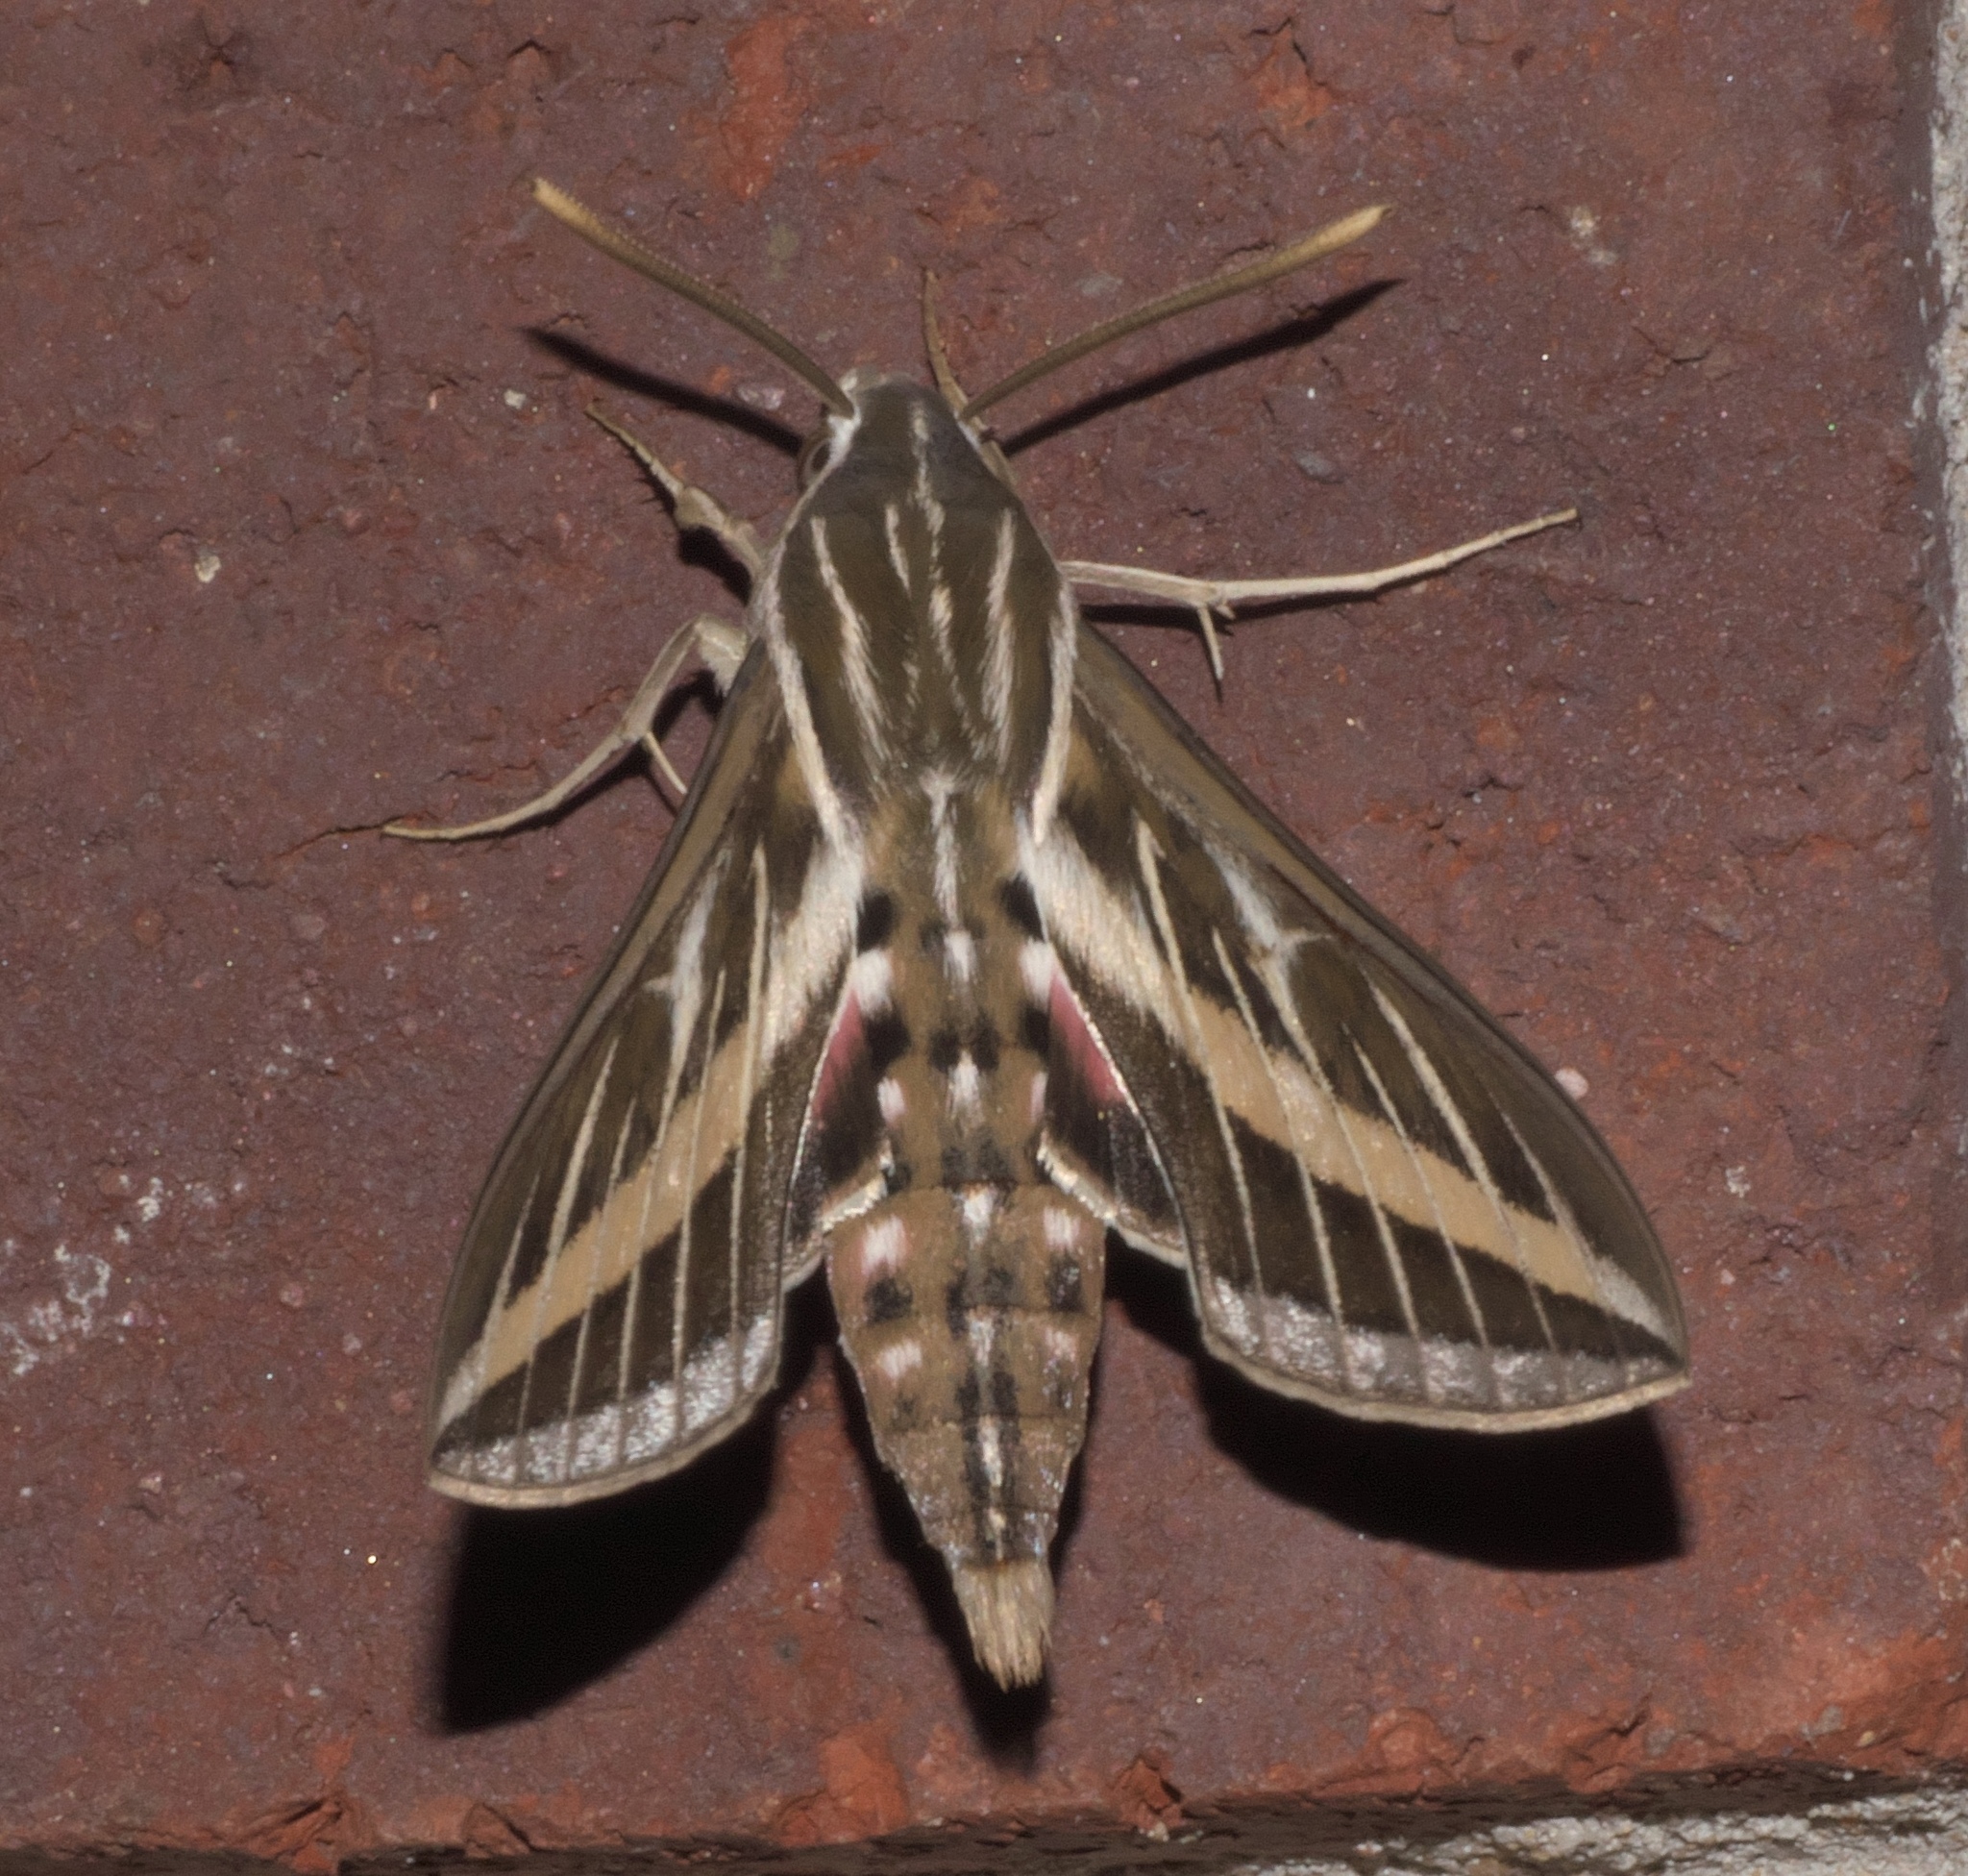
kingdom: Animalia
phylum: Arthropoda
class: Insecta
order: Lepidoptera
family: Sphingidae
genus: Hyles
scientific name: Hyles lineata
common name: White-lined sphinx
